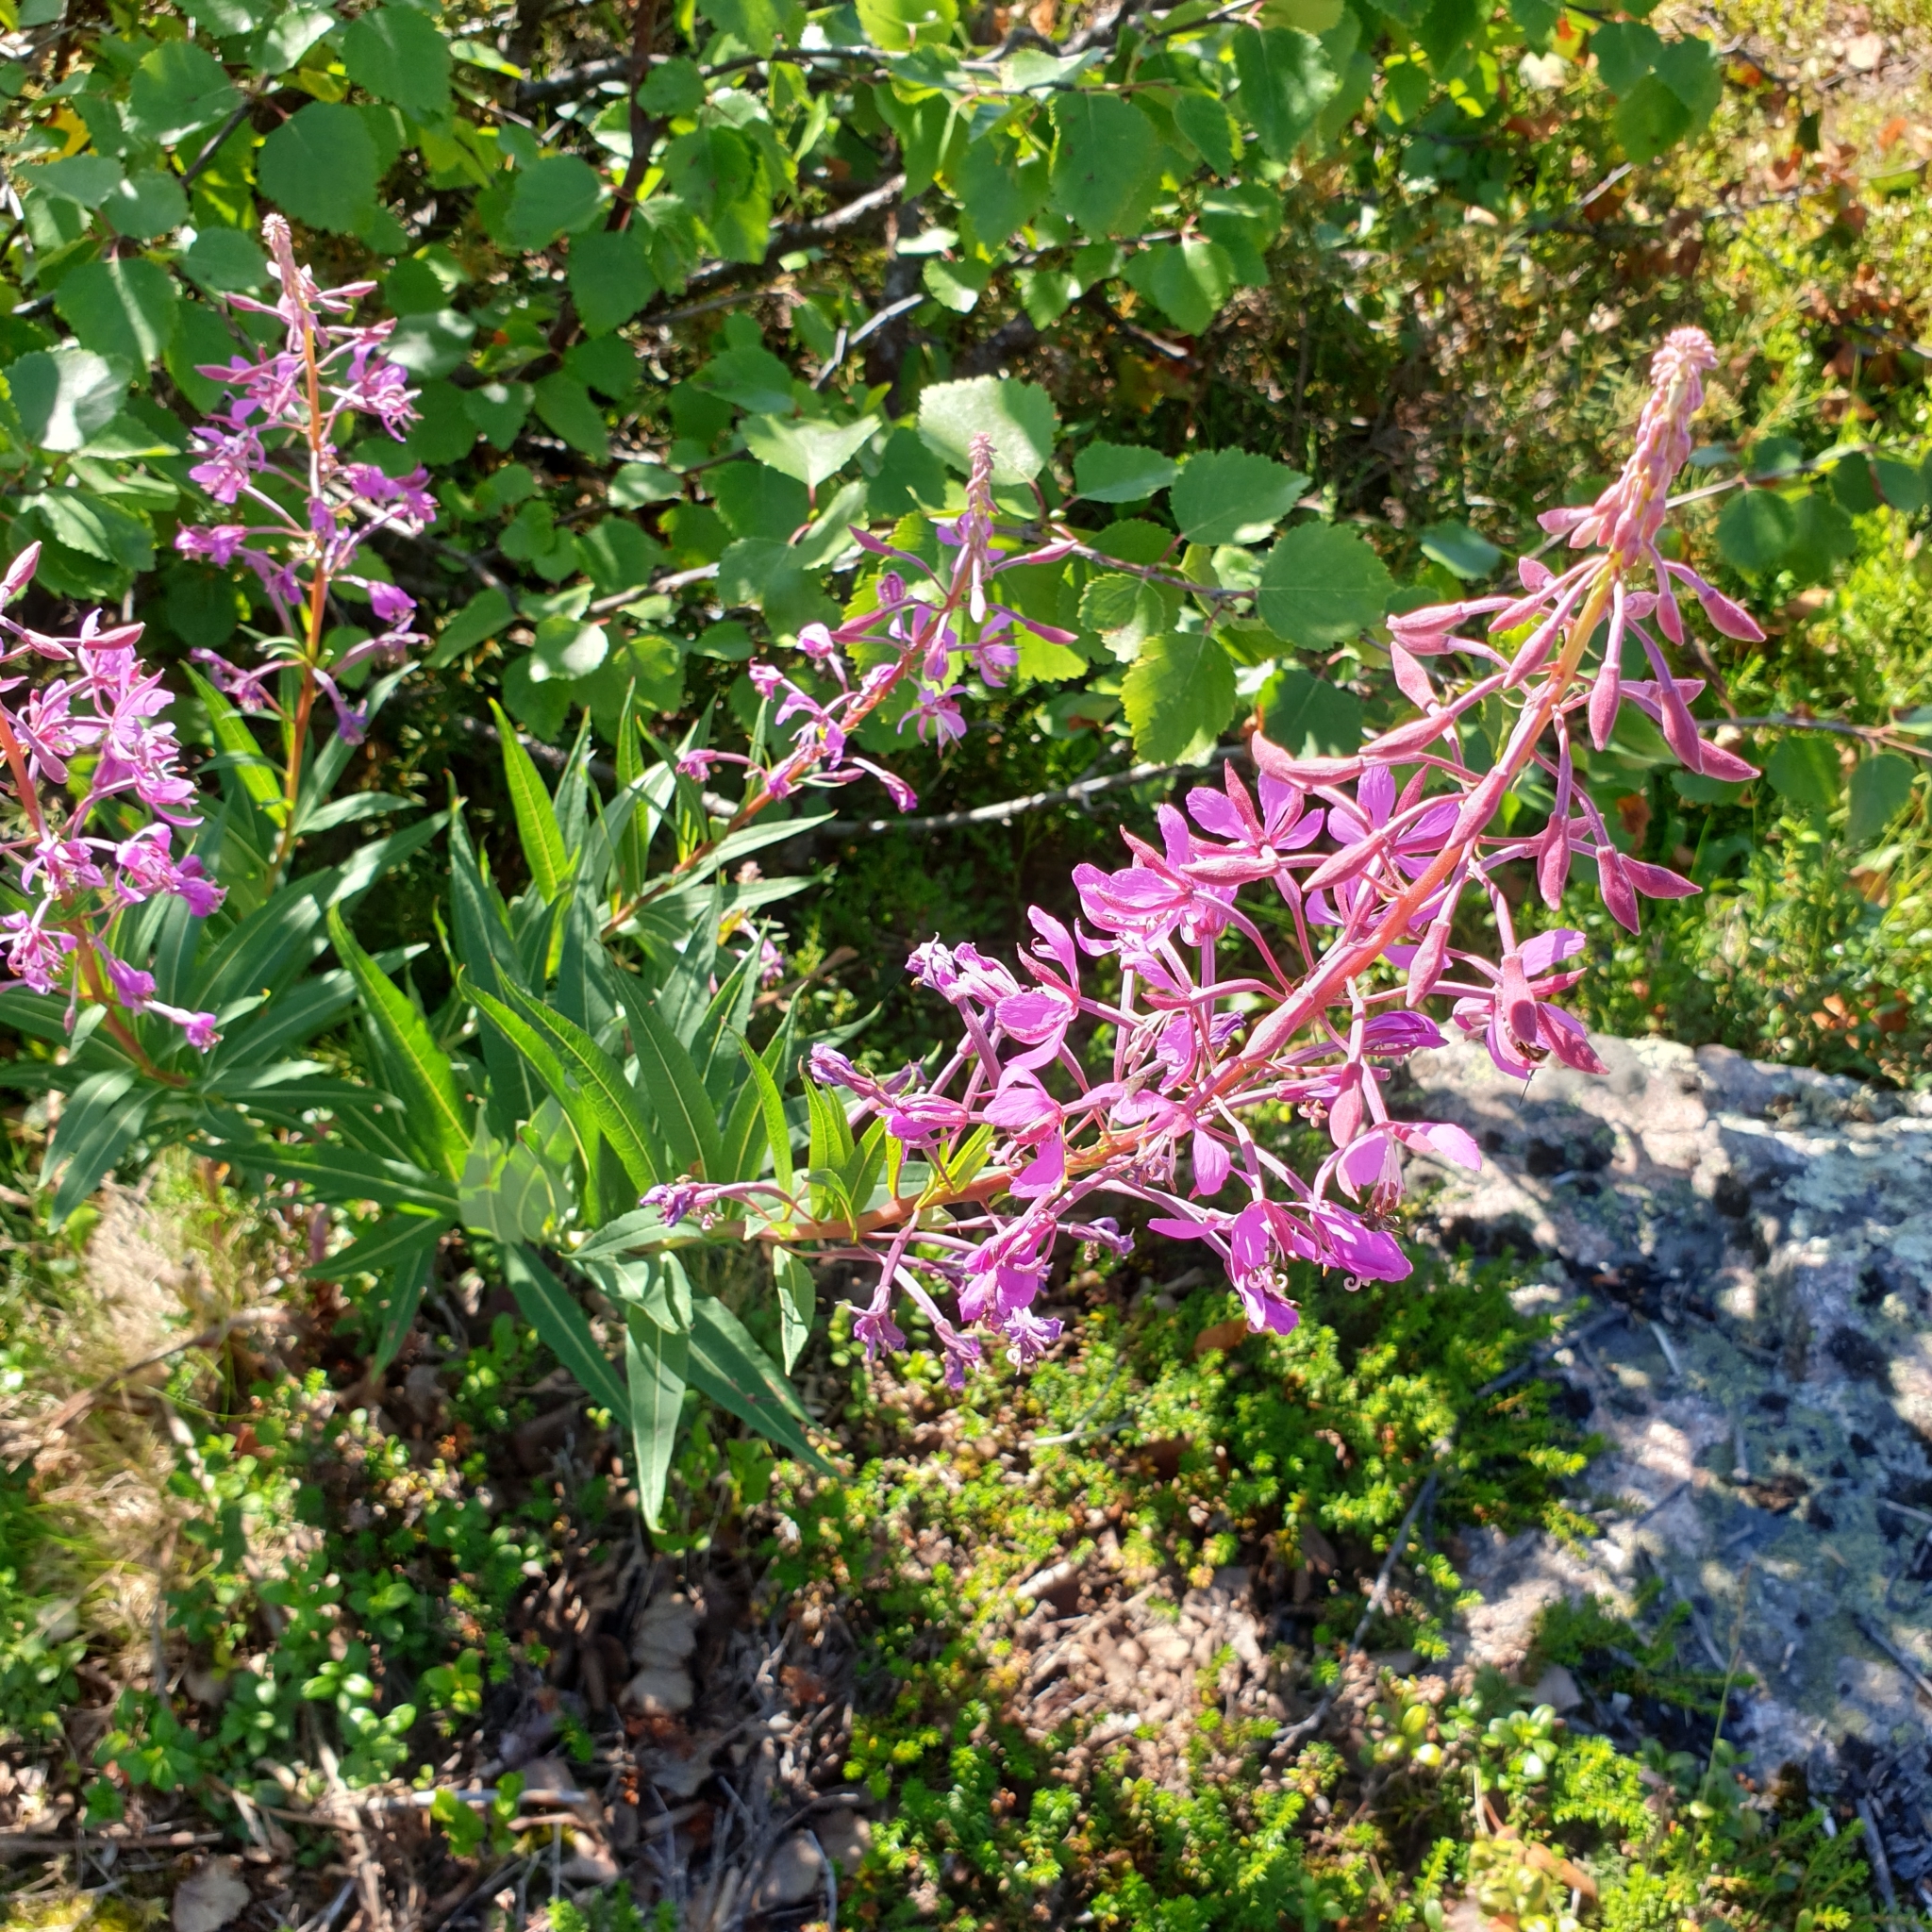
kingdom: Plantae
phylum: Tracheophyta
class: Magnoliopsida
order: Myrtales
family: Onagraceae
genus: Chamaenerion
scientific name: Chamaenerion angustifolium
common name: Fireweed
